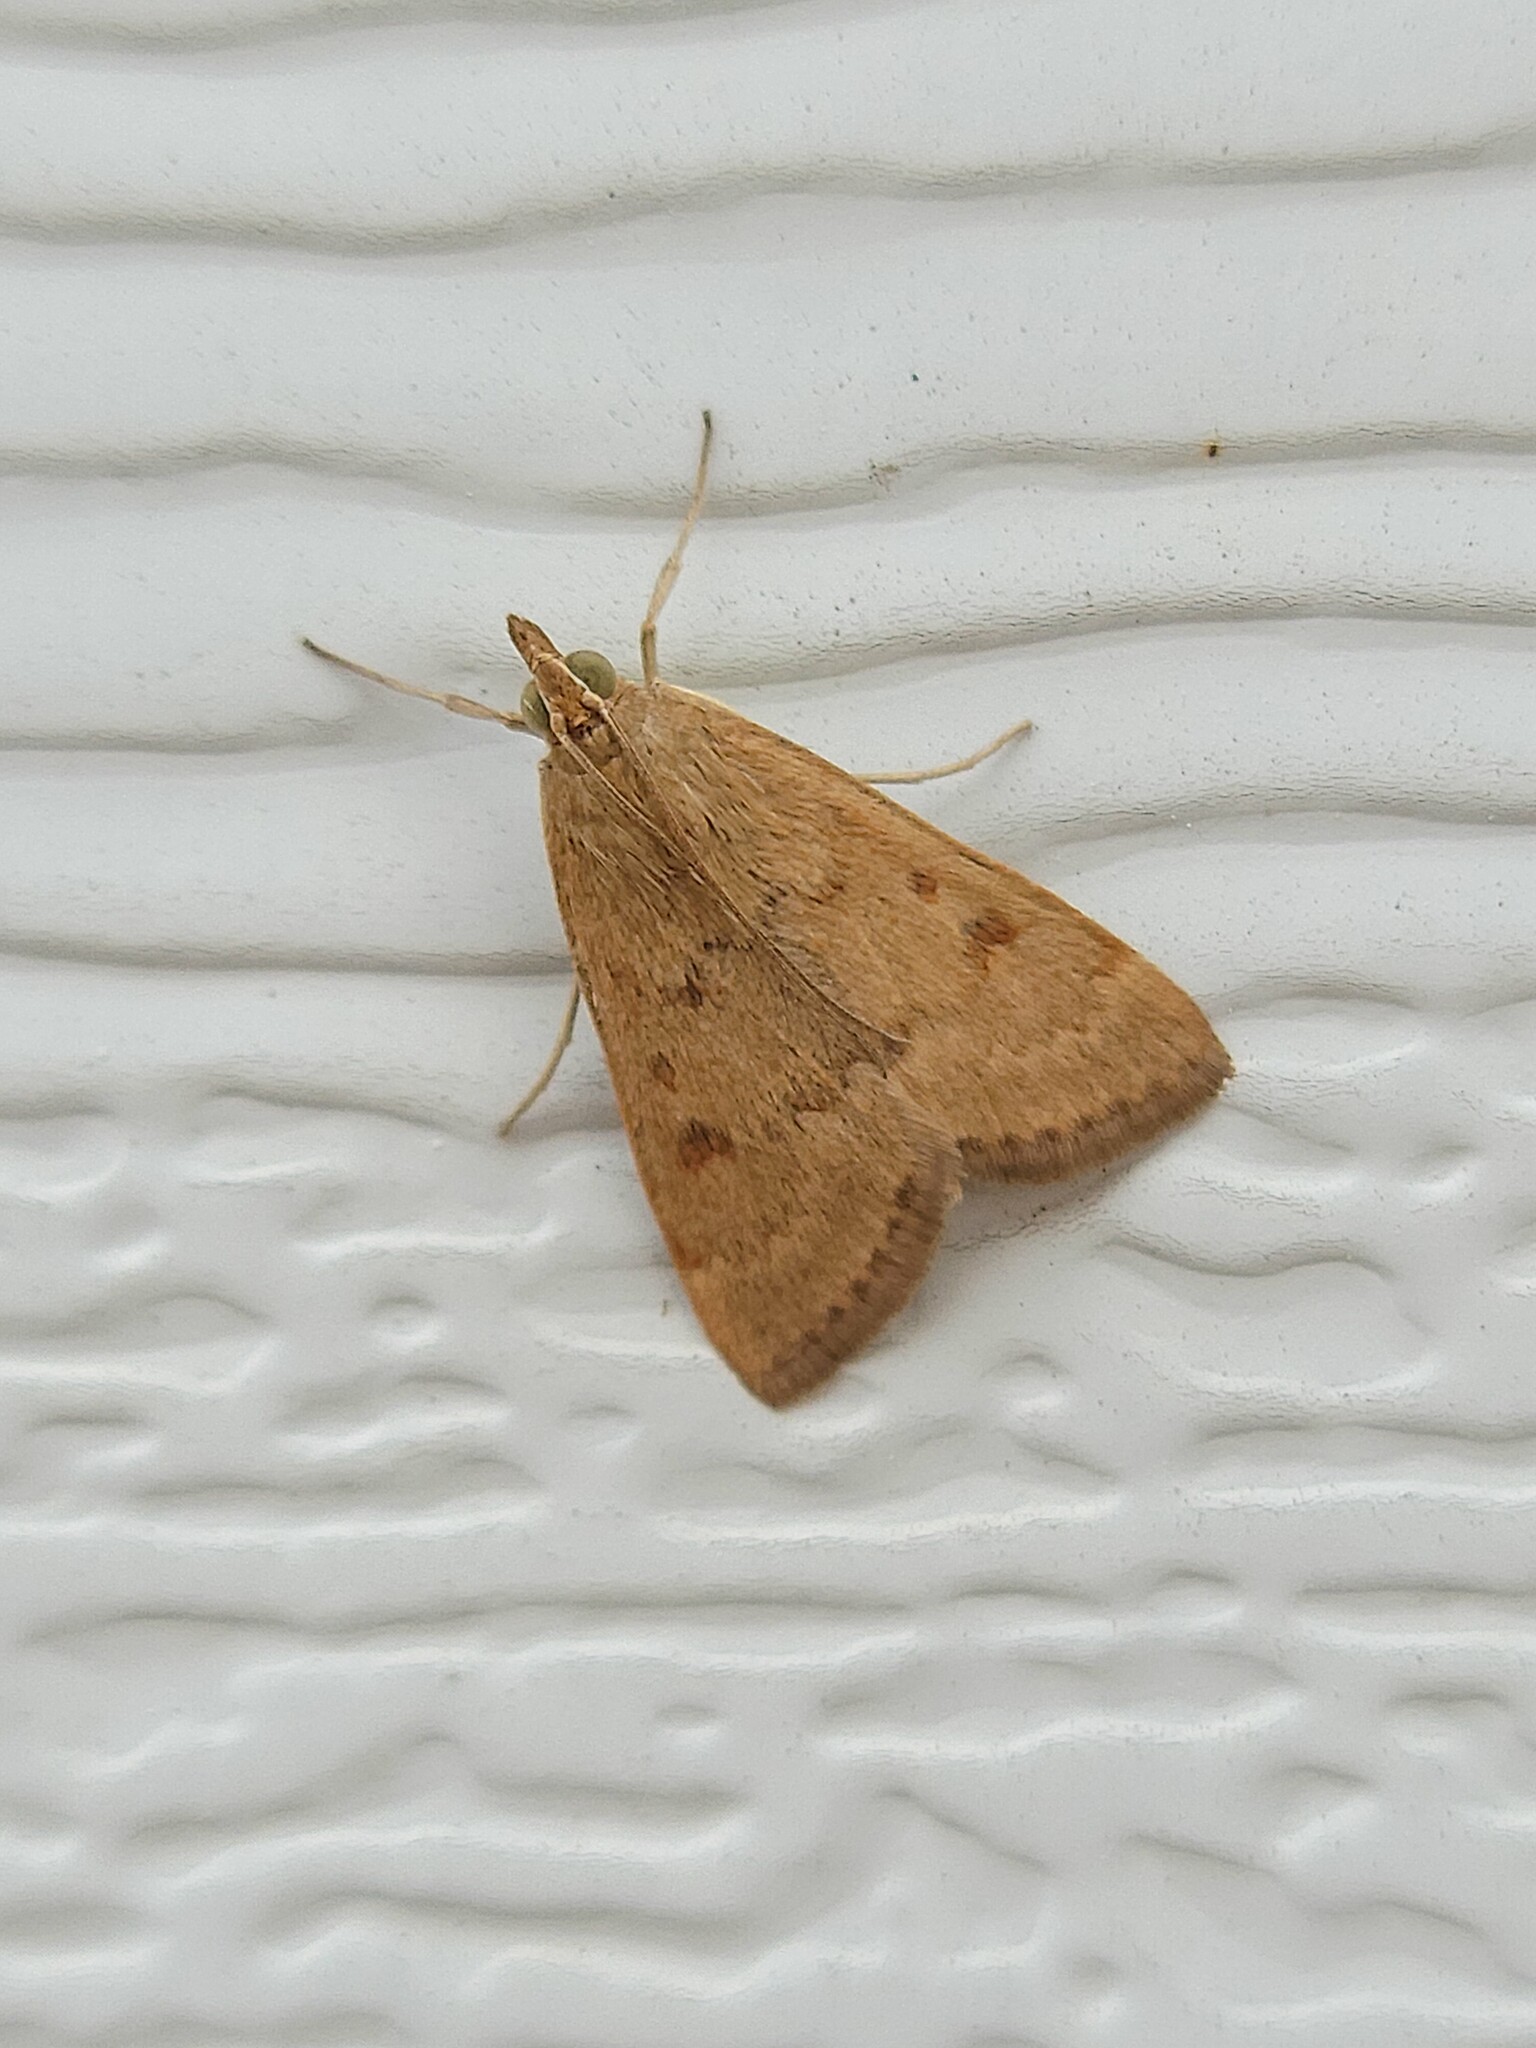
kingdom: Animalia
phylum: Arthropoda
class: Insecta
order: Lepidoptera
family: Crambidae
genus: Achyra
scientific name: Achyra rantalis
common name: Garden webworm
